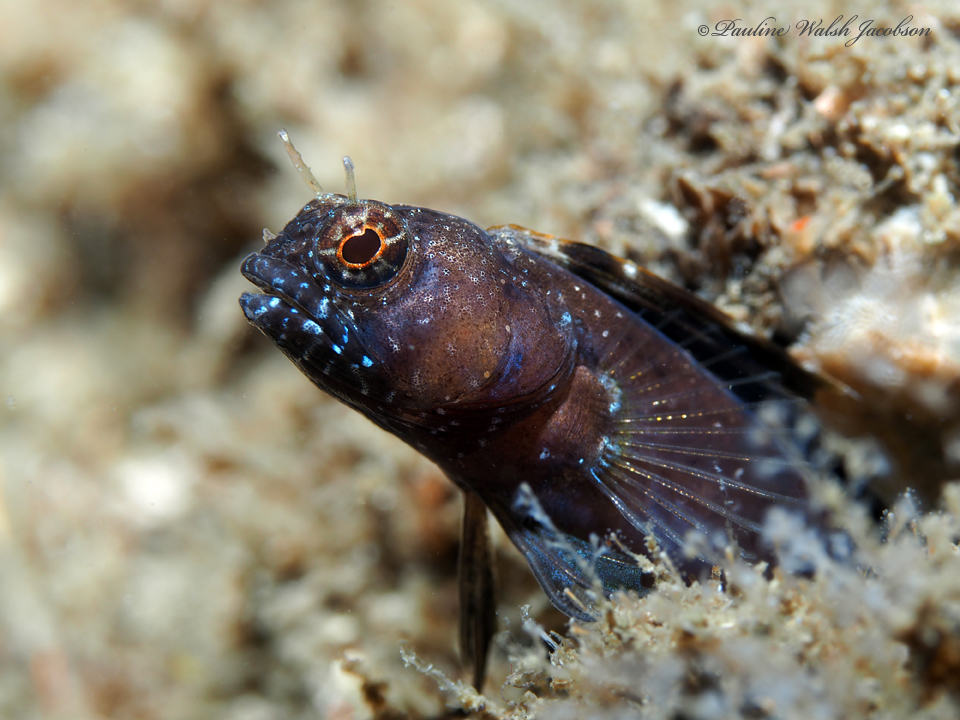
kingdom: Animalia
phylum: Chordata
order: Perciformes
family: Chaenopsidae
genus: Emblemaria
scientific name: Emblemaria pandionis
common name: Sailfin blenny
